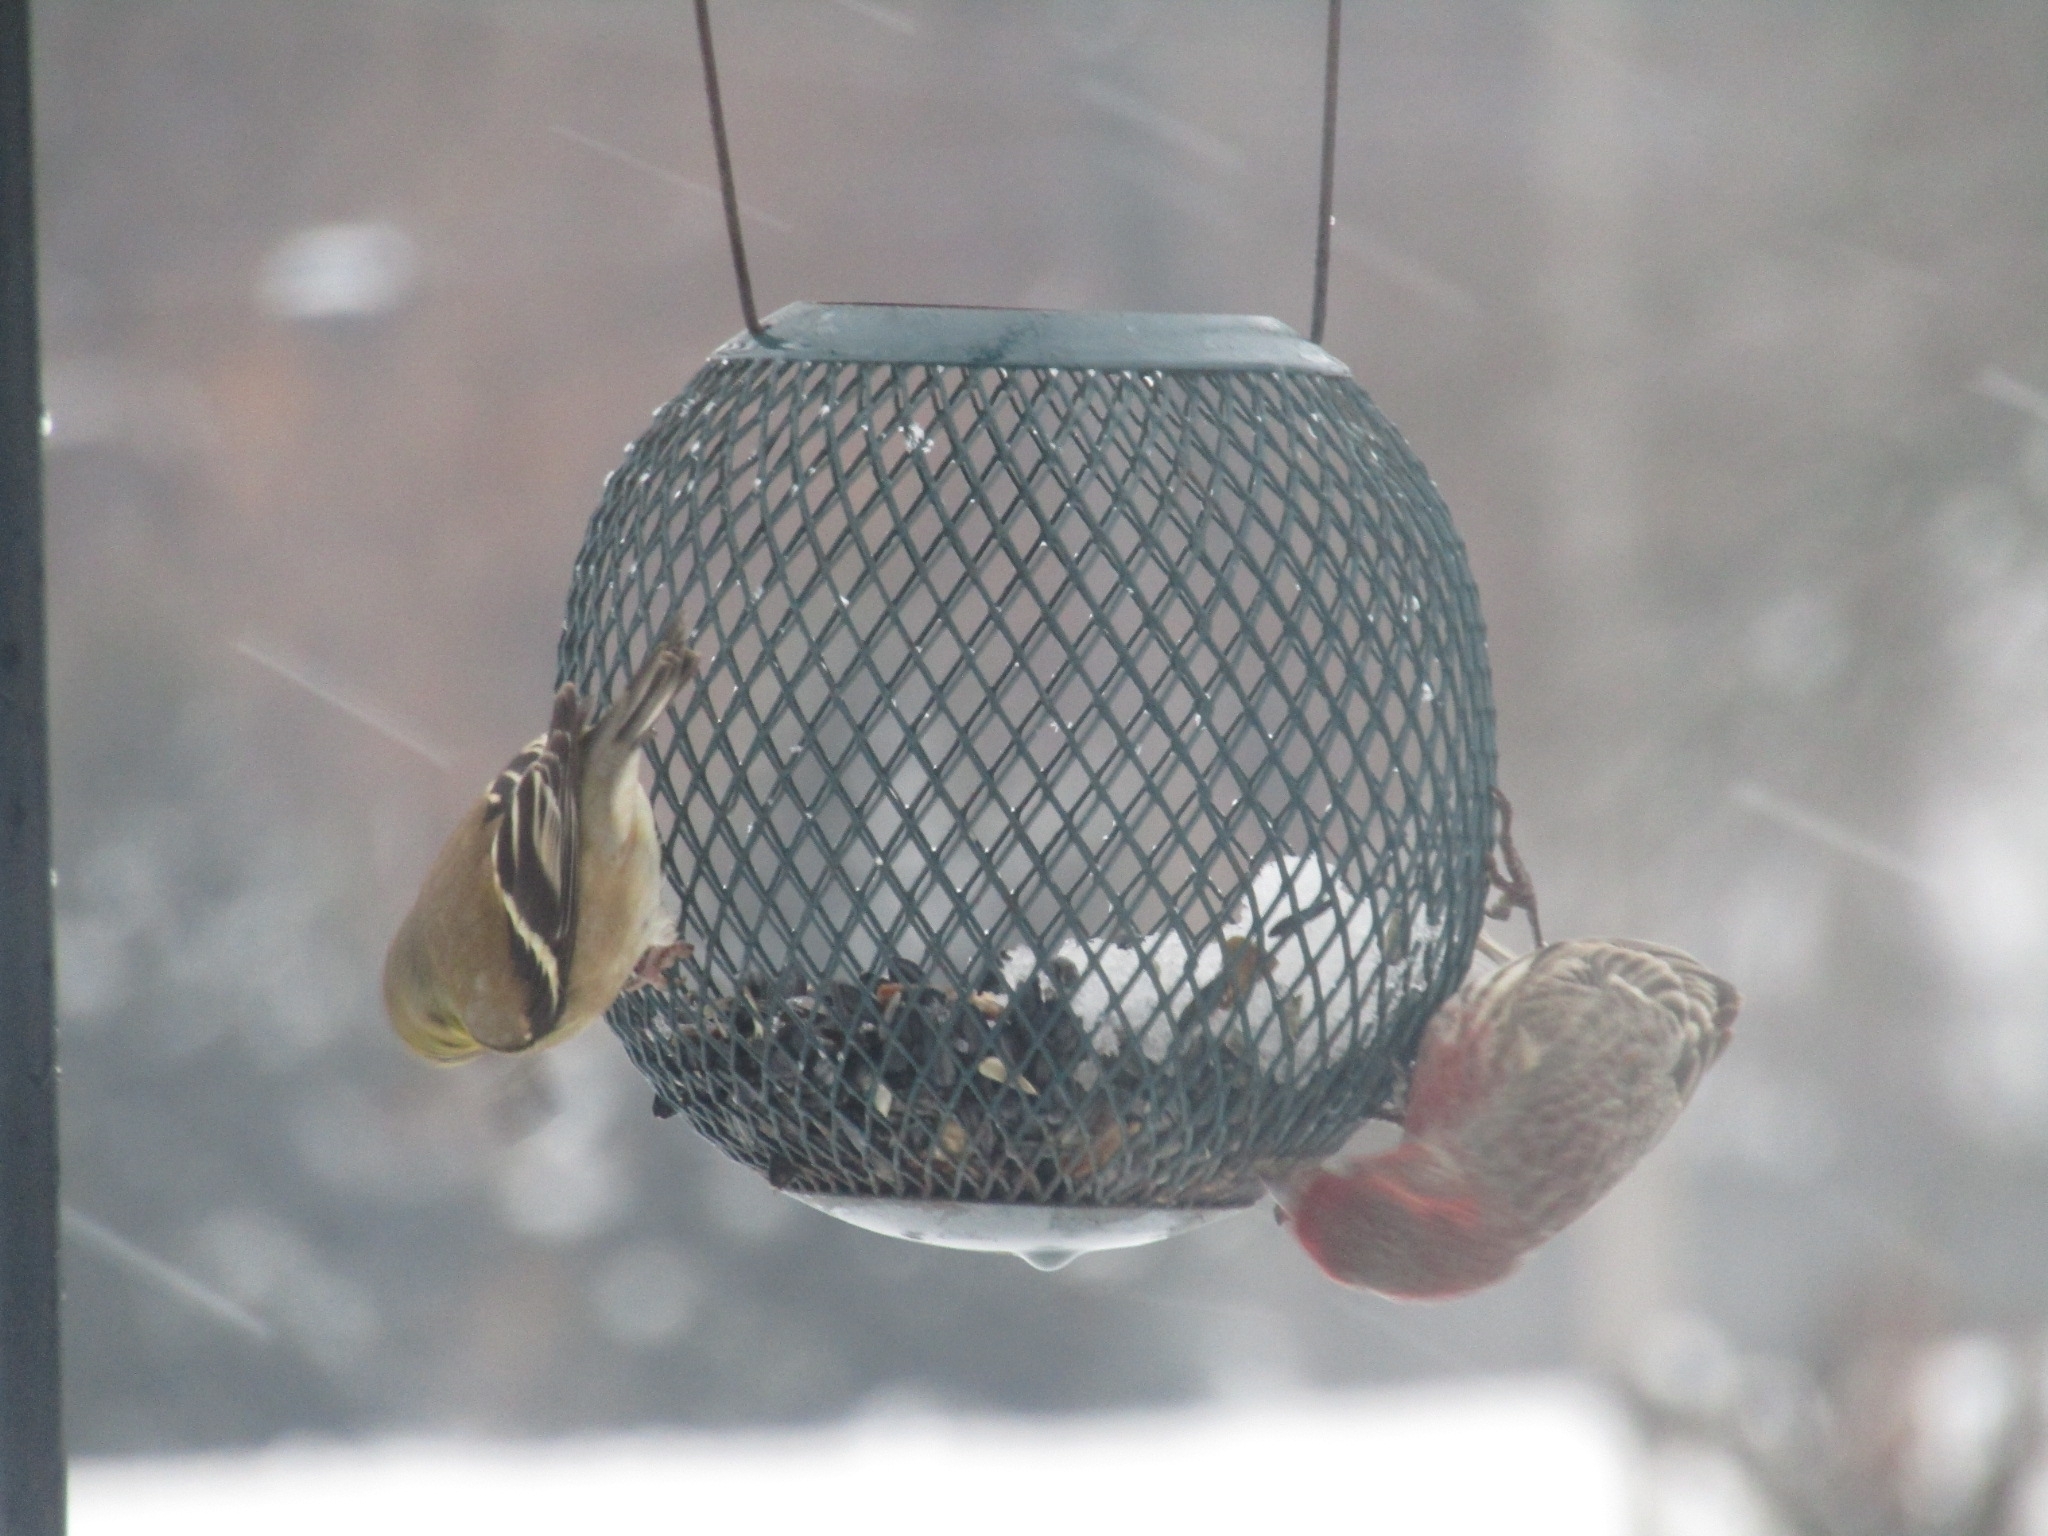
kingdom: Animalia
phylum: Chordata
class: Aves
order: Passeriformes
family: Fringillidae
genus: Haemorhous
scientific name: Haemorhous mexicanus
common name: House finch
